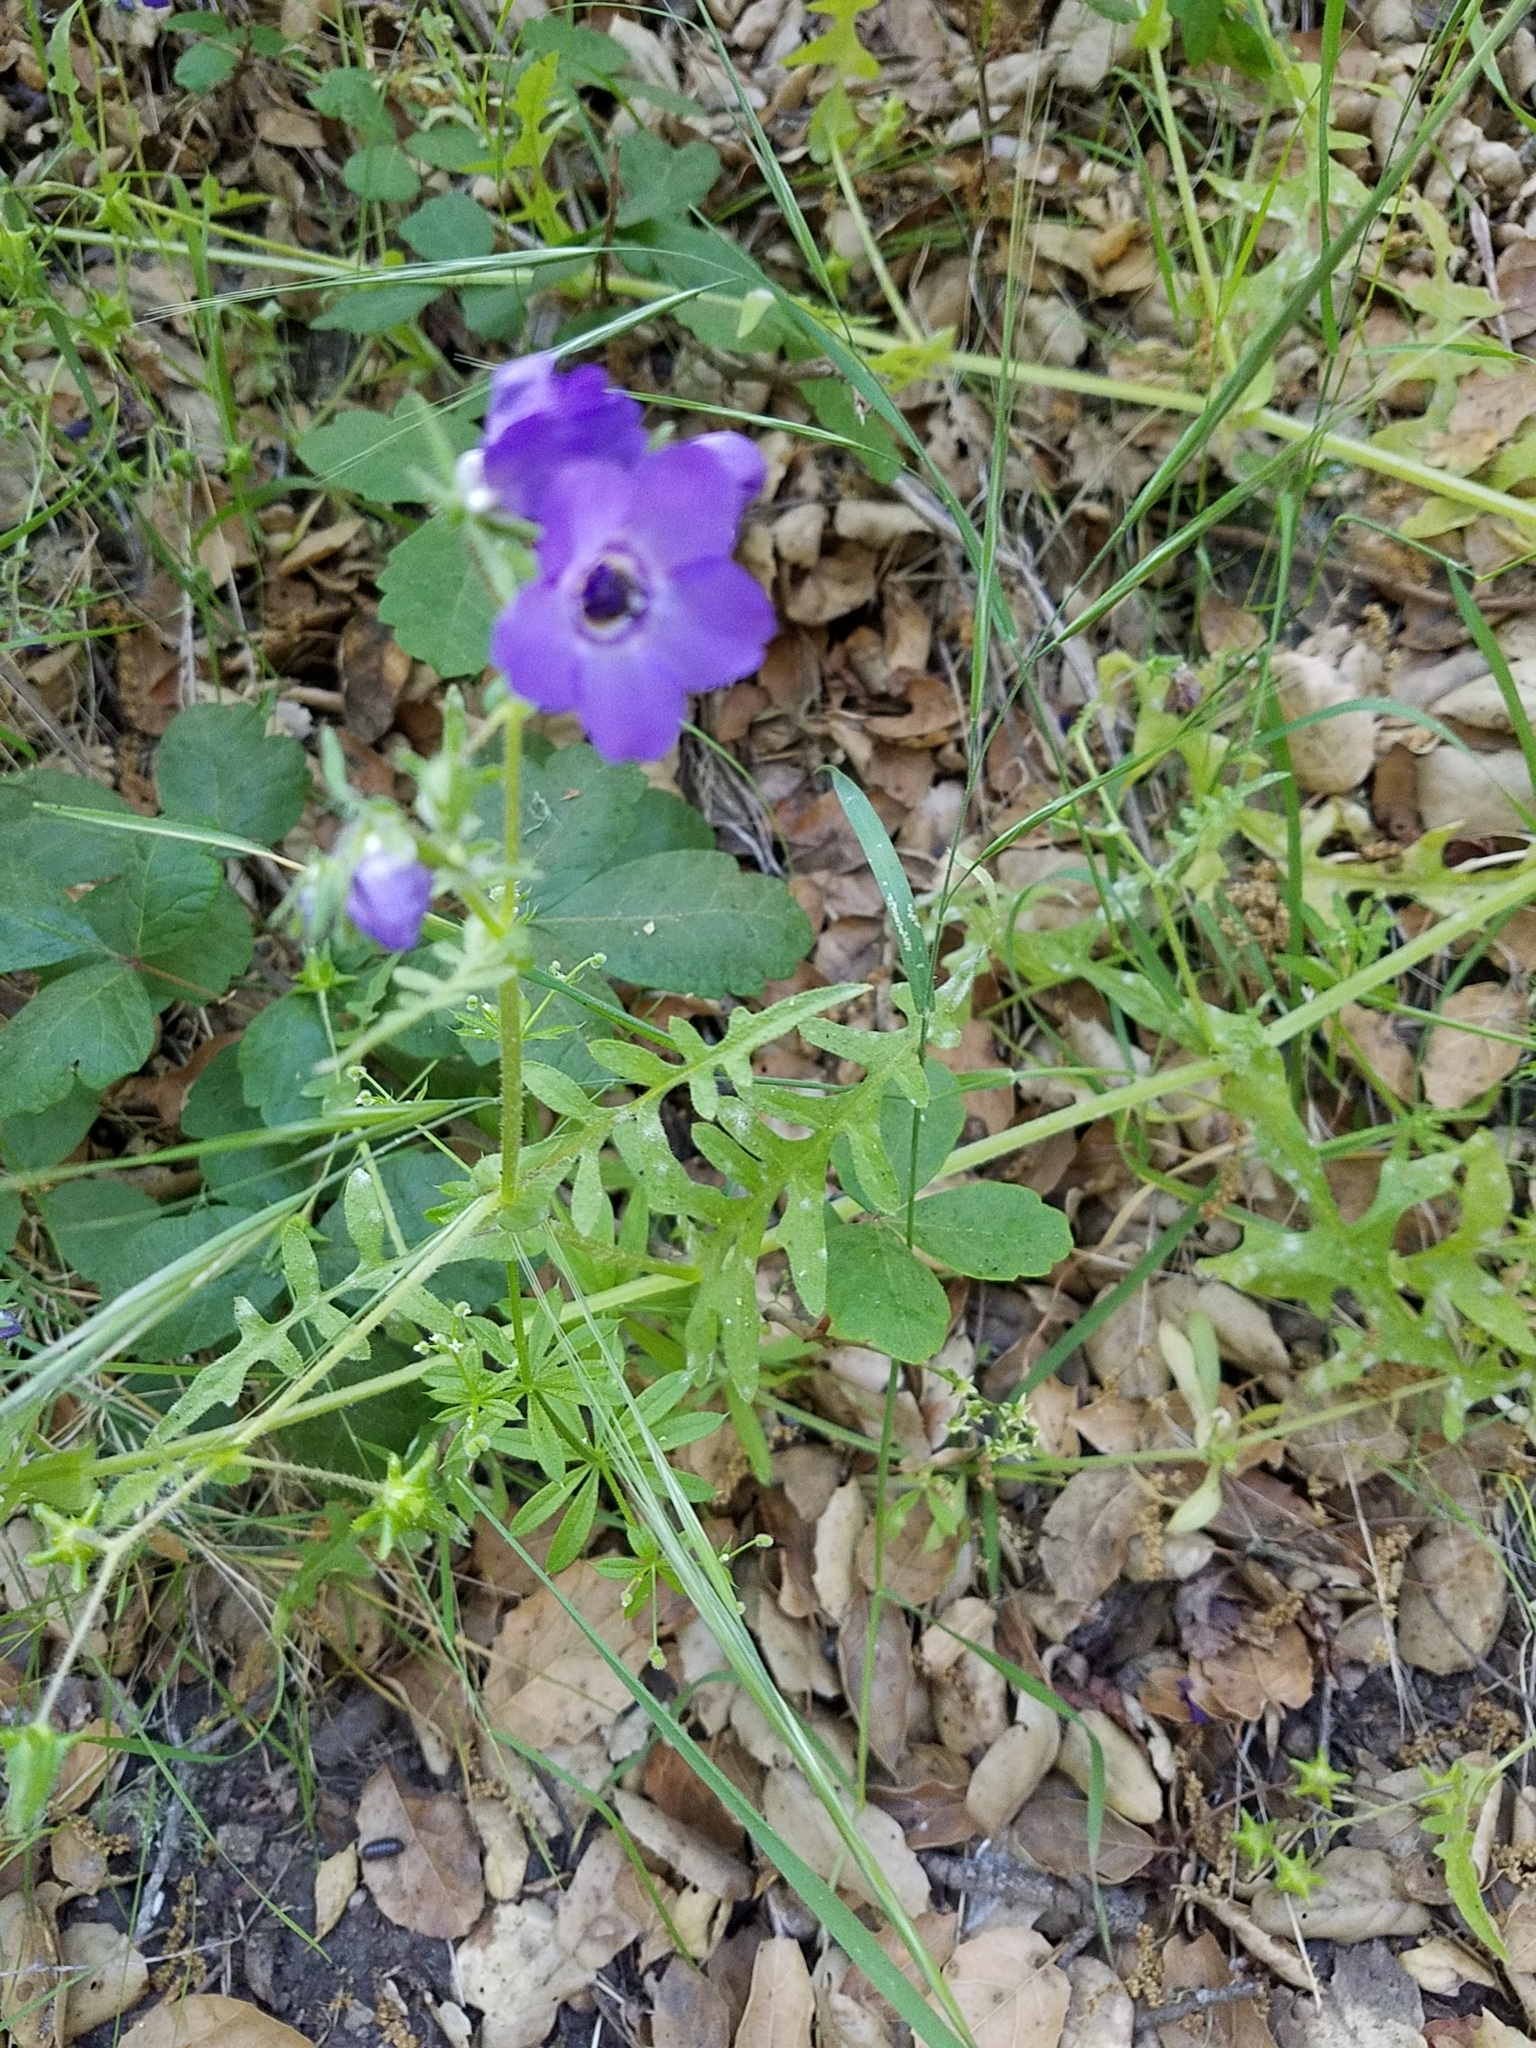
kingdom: Plantae
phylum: Tracheophyta
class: Magnoliopsida
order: Boraginales
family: Hydrophyllaceae
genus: Pholistoma
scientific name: Pholistoma auritum
